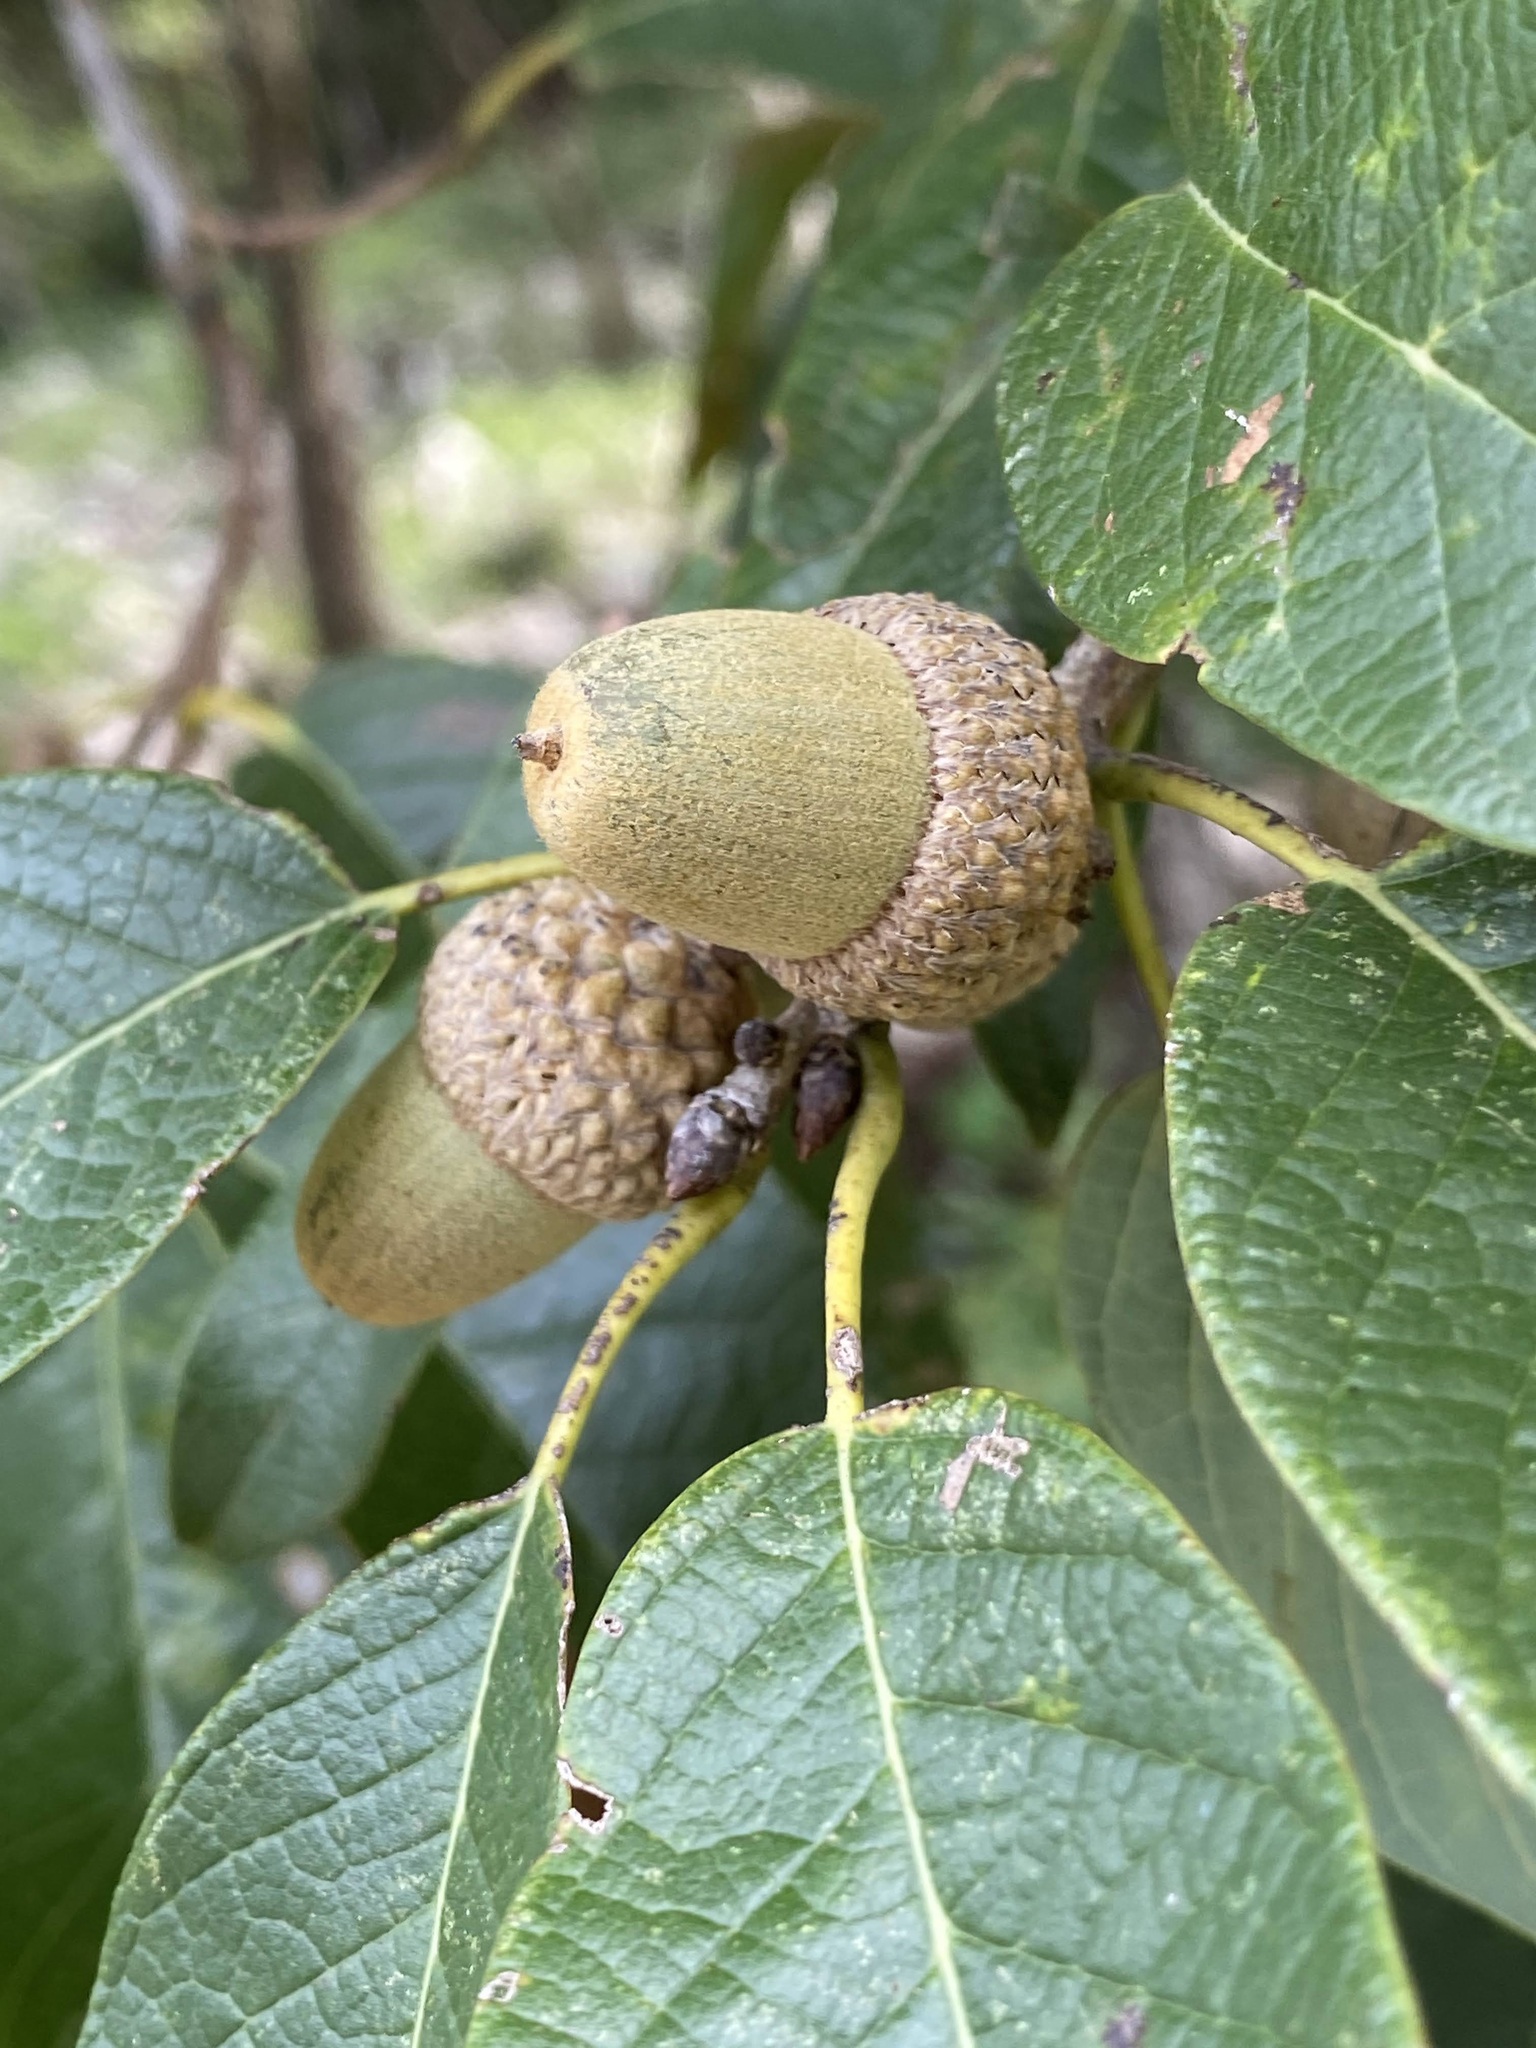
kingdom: Plantae
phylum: Tracheophyta
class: Magnoliopsida
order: Fagales
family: Fagaceae
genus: Quercus
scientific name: Quercus polymorpha
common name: Mexican white oak
